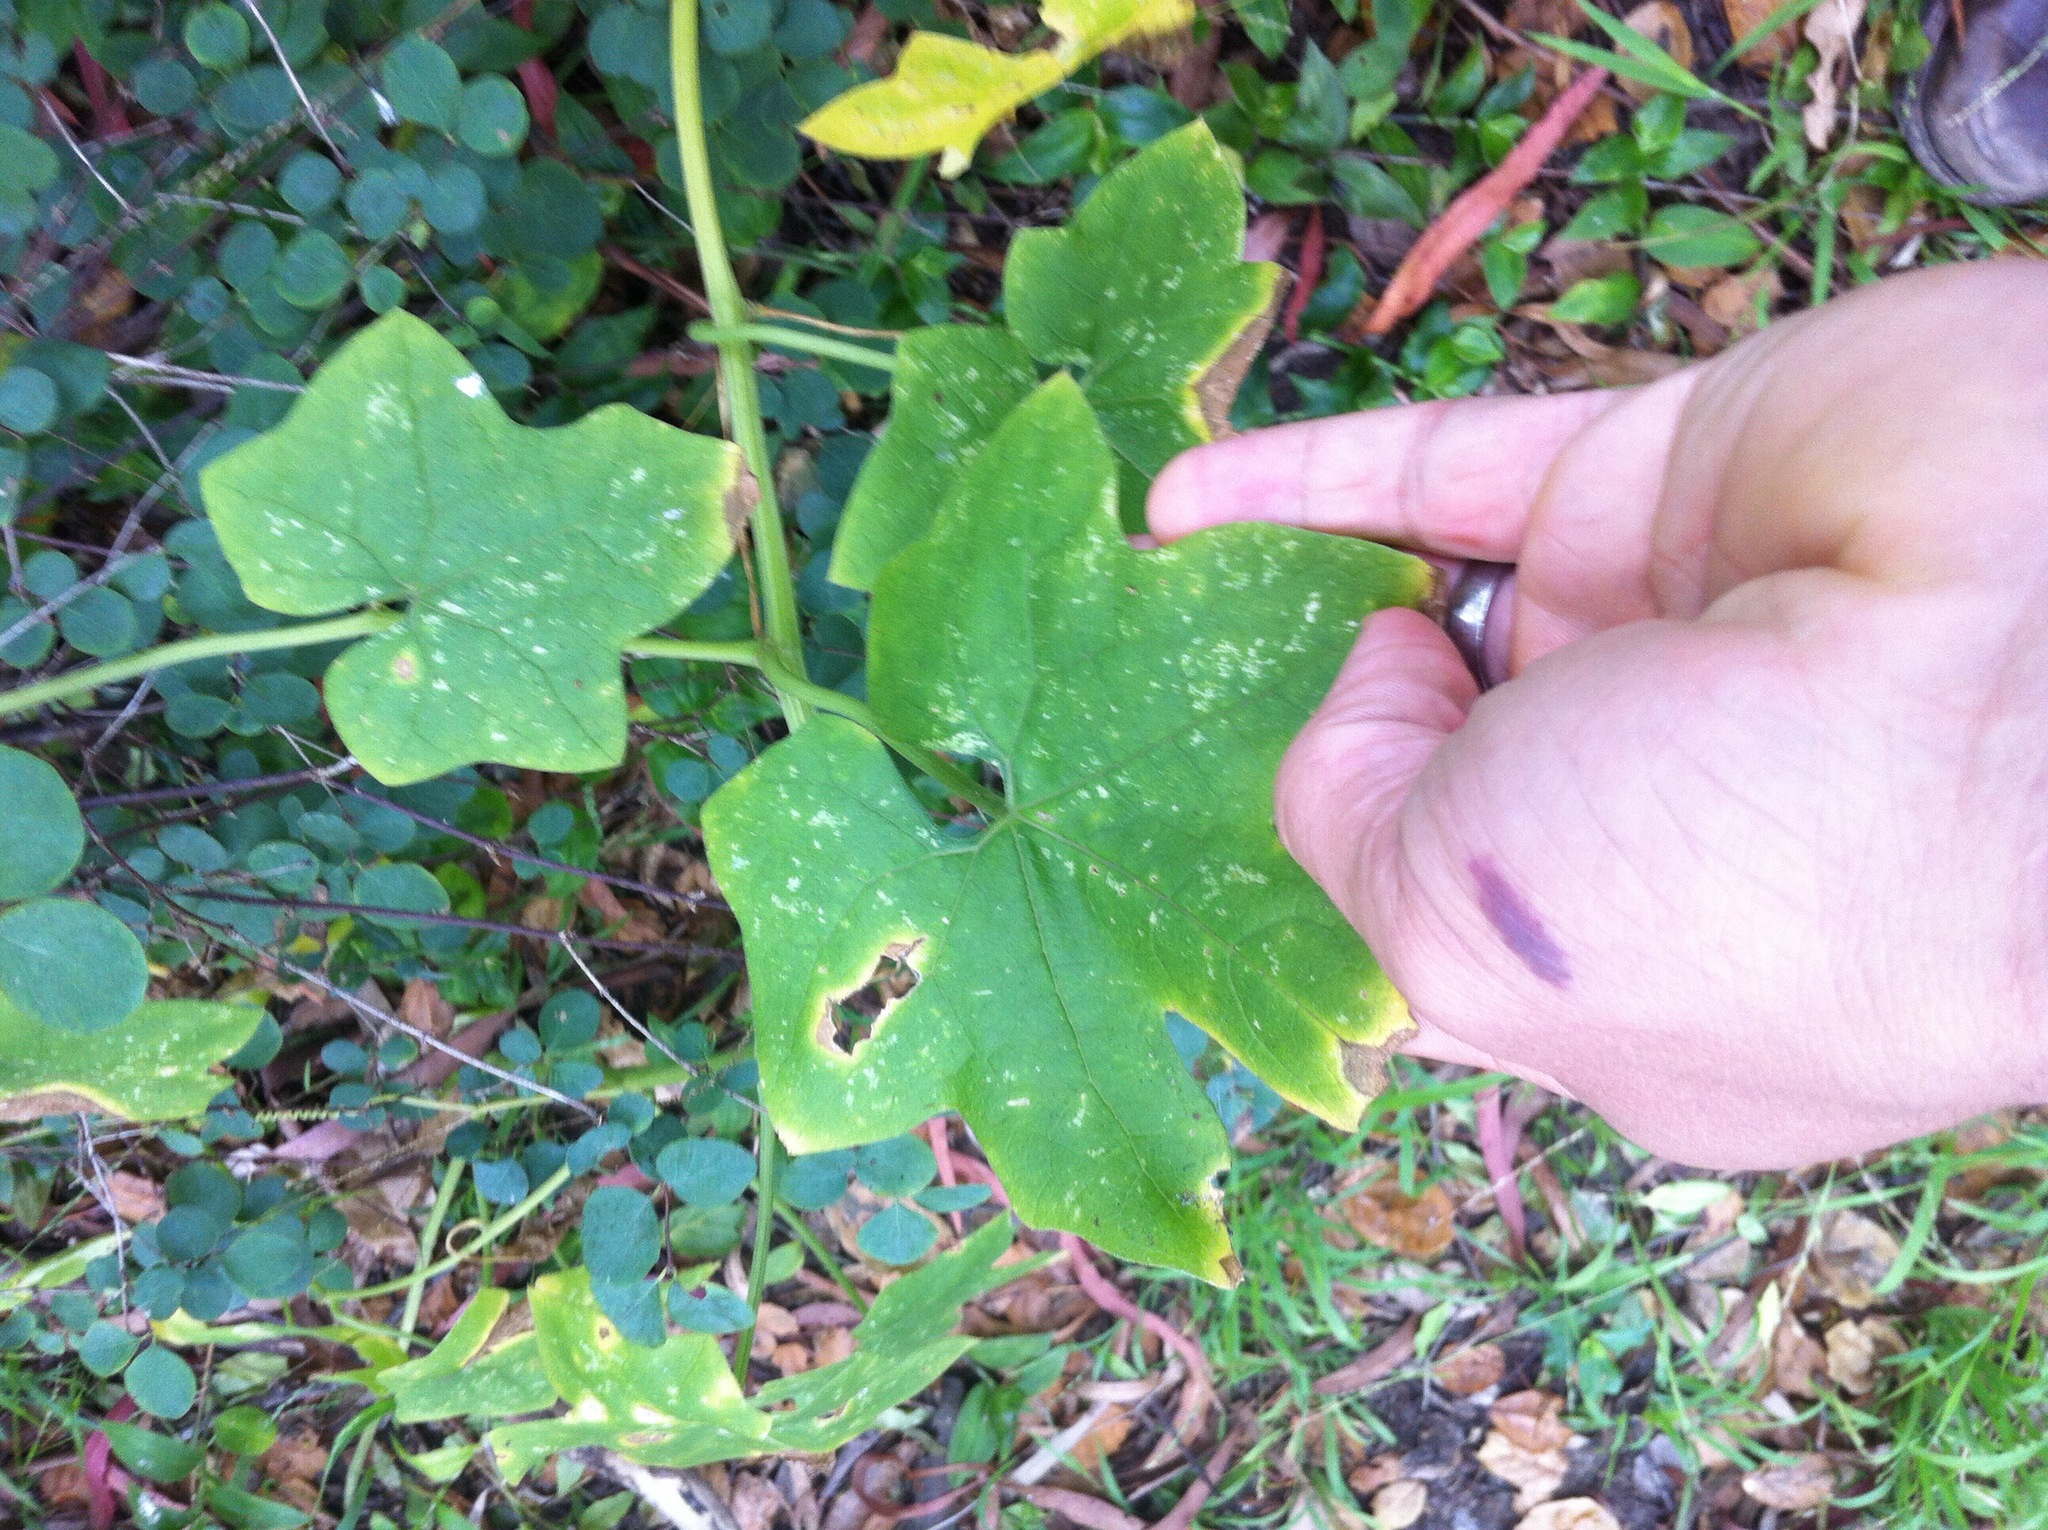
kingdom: Plantae
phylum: Tracheophyta
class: Magnoliopsida
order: Cucurbitales
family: Cucurbitaceae
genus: Marah
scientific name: Marah fabacea
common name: California manroot
